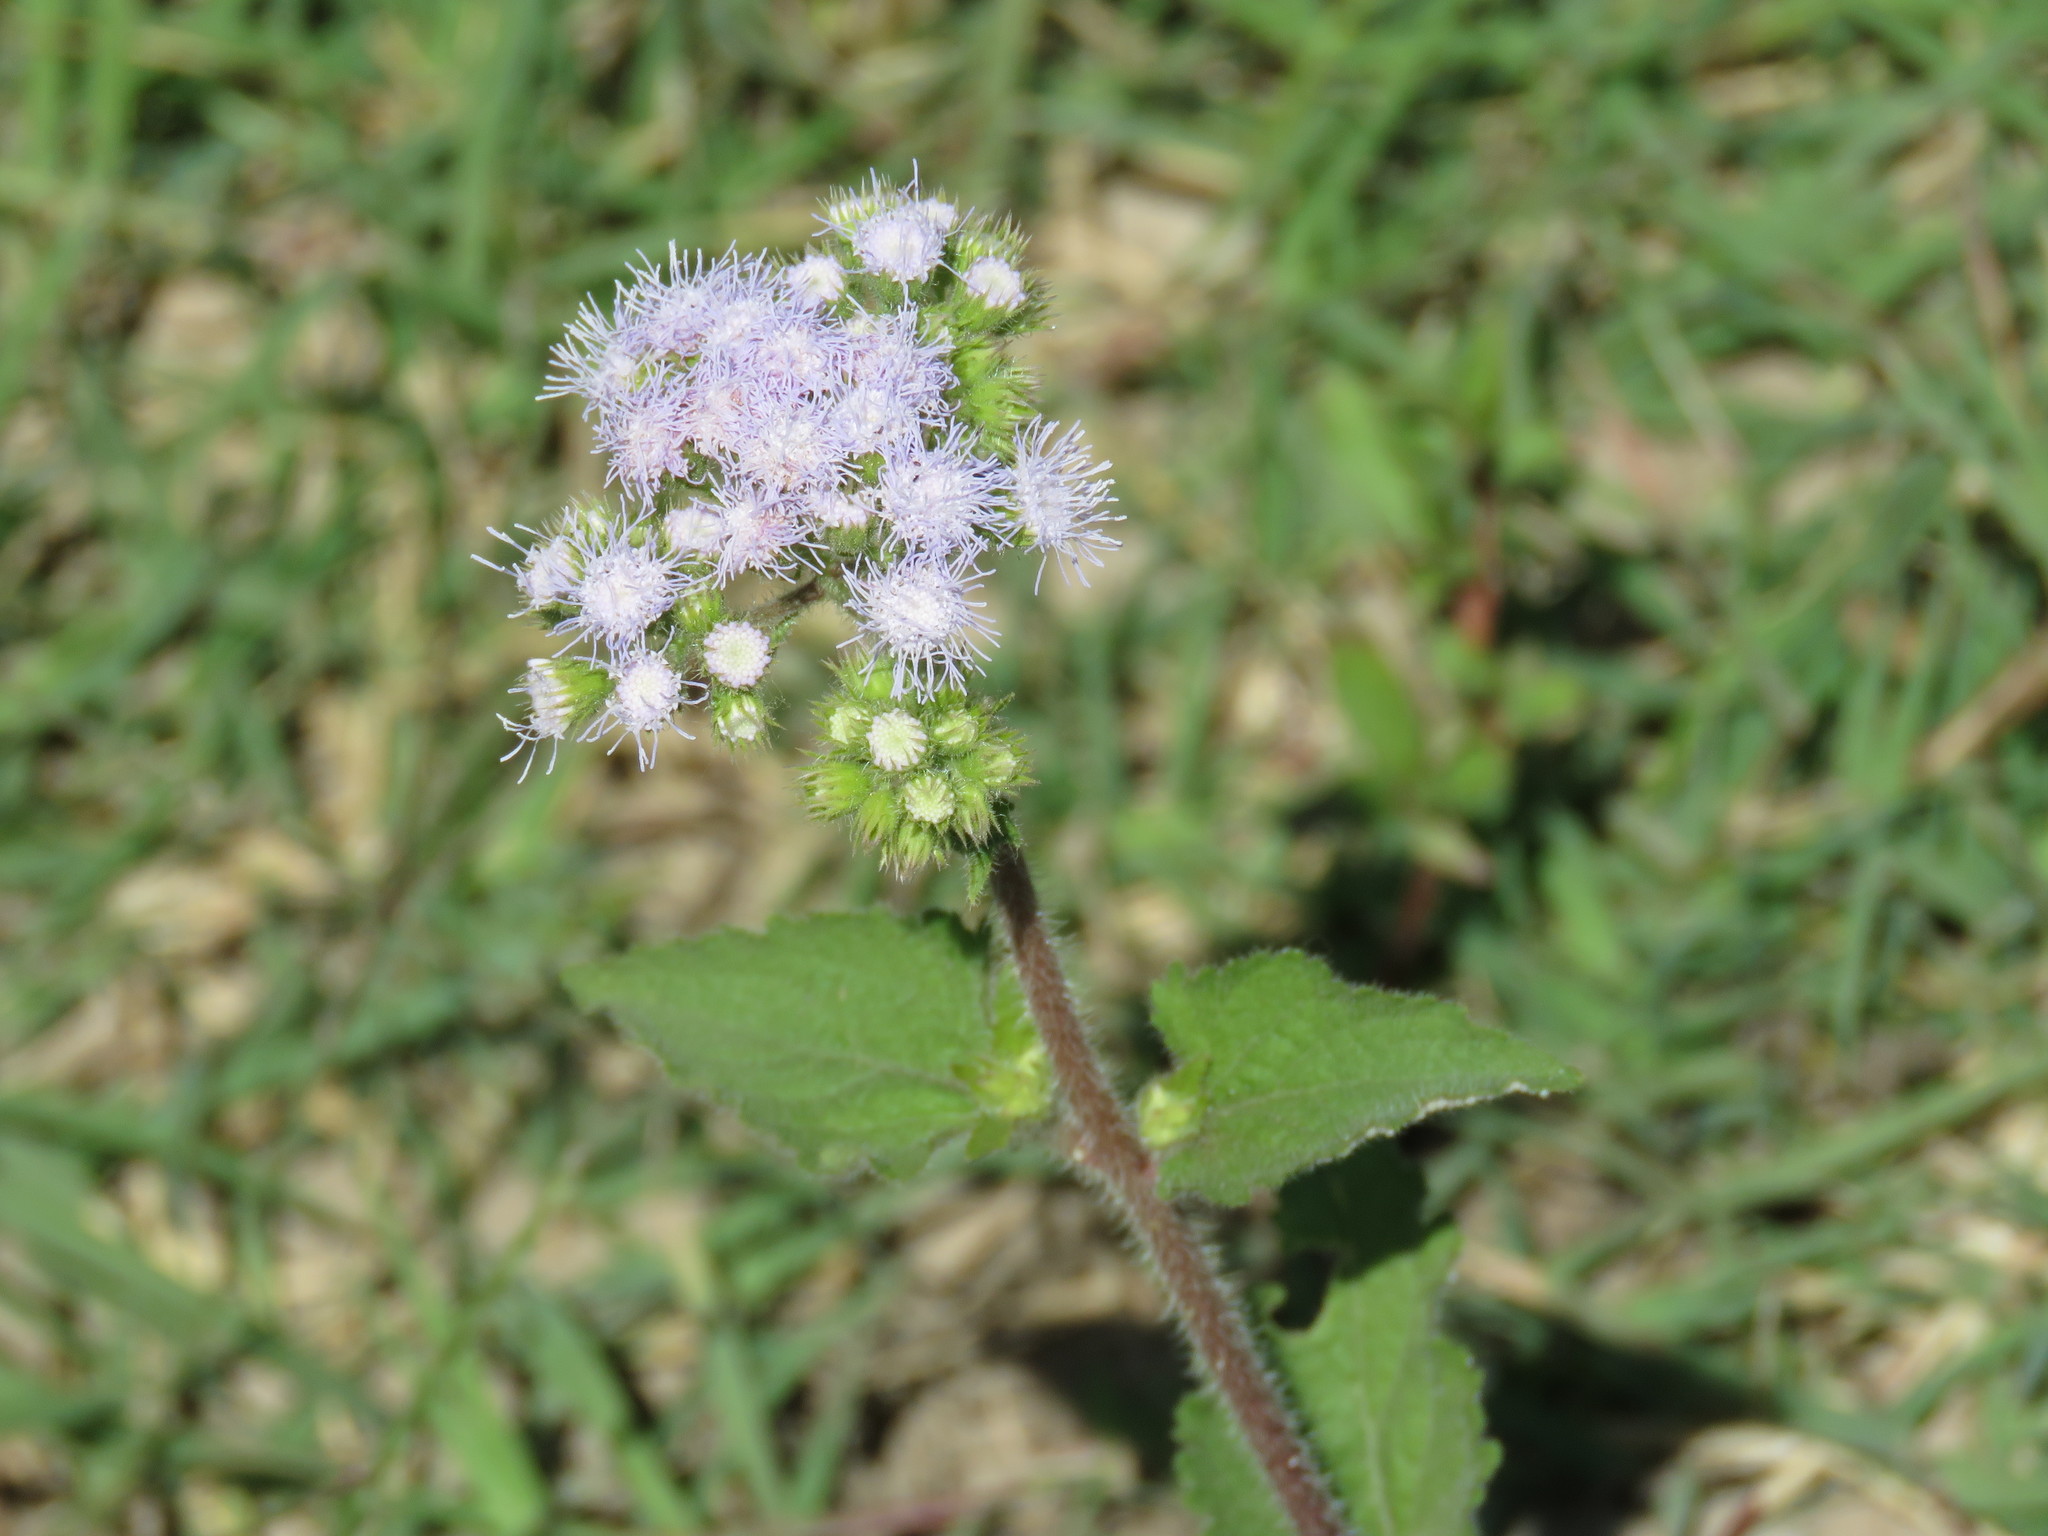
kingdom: Plantae
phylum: Tracheophyta
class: Magnoliopsida
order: Asterales
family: Asteraceae
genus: Ageratum
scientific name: Ageratum houstonianum
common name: Bluemink
